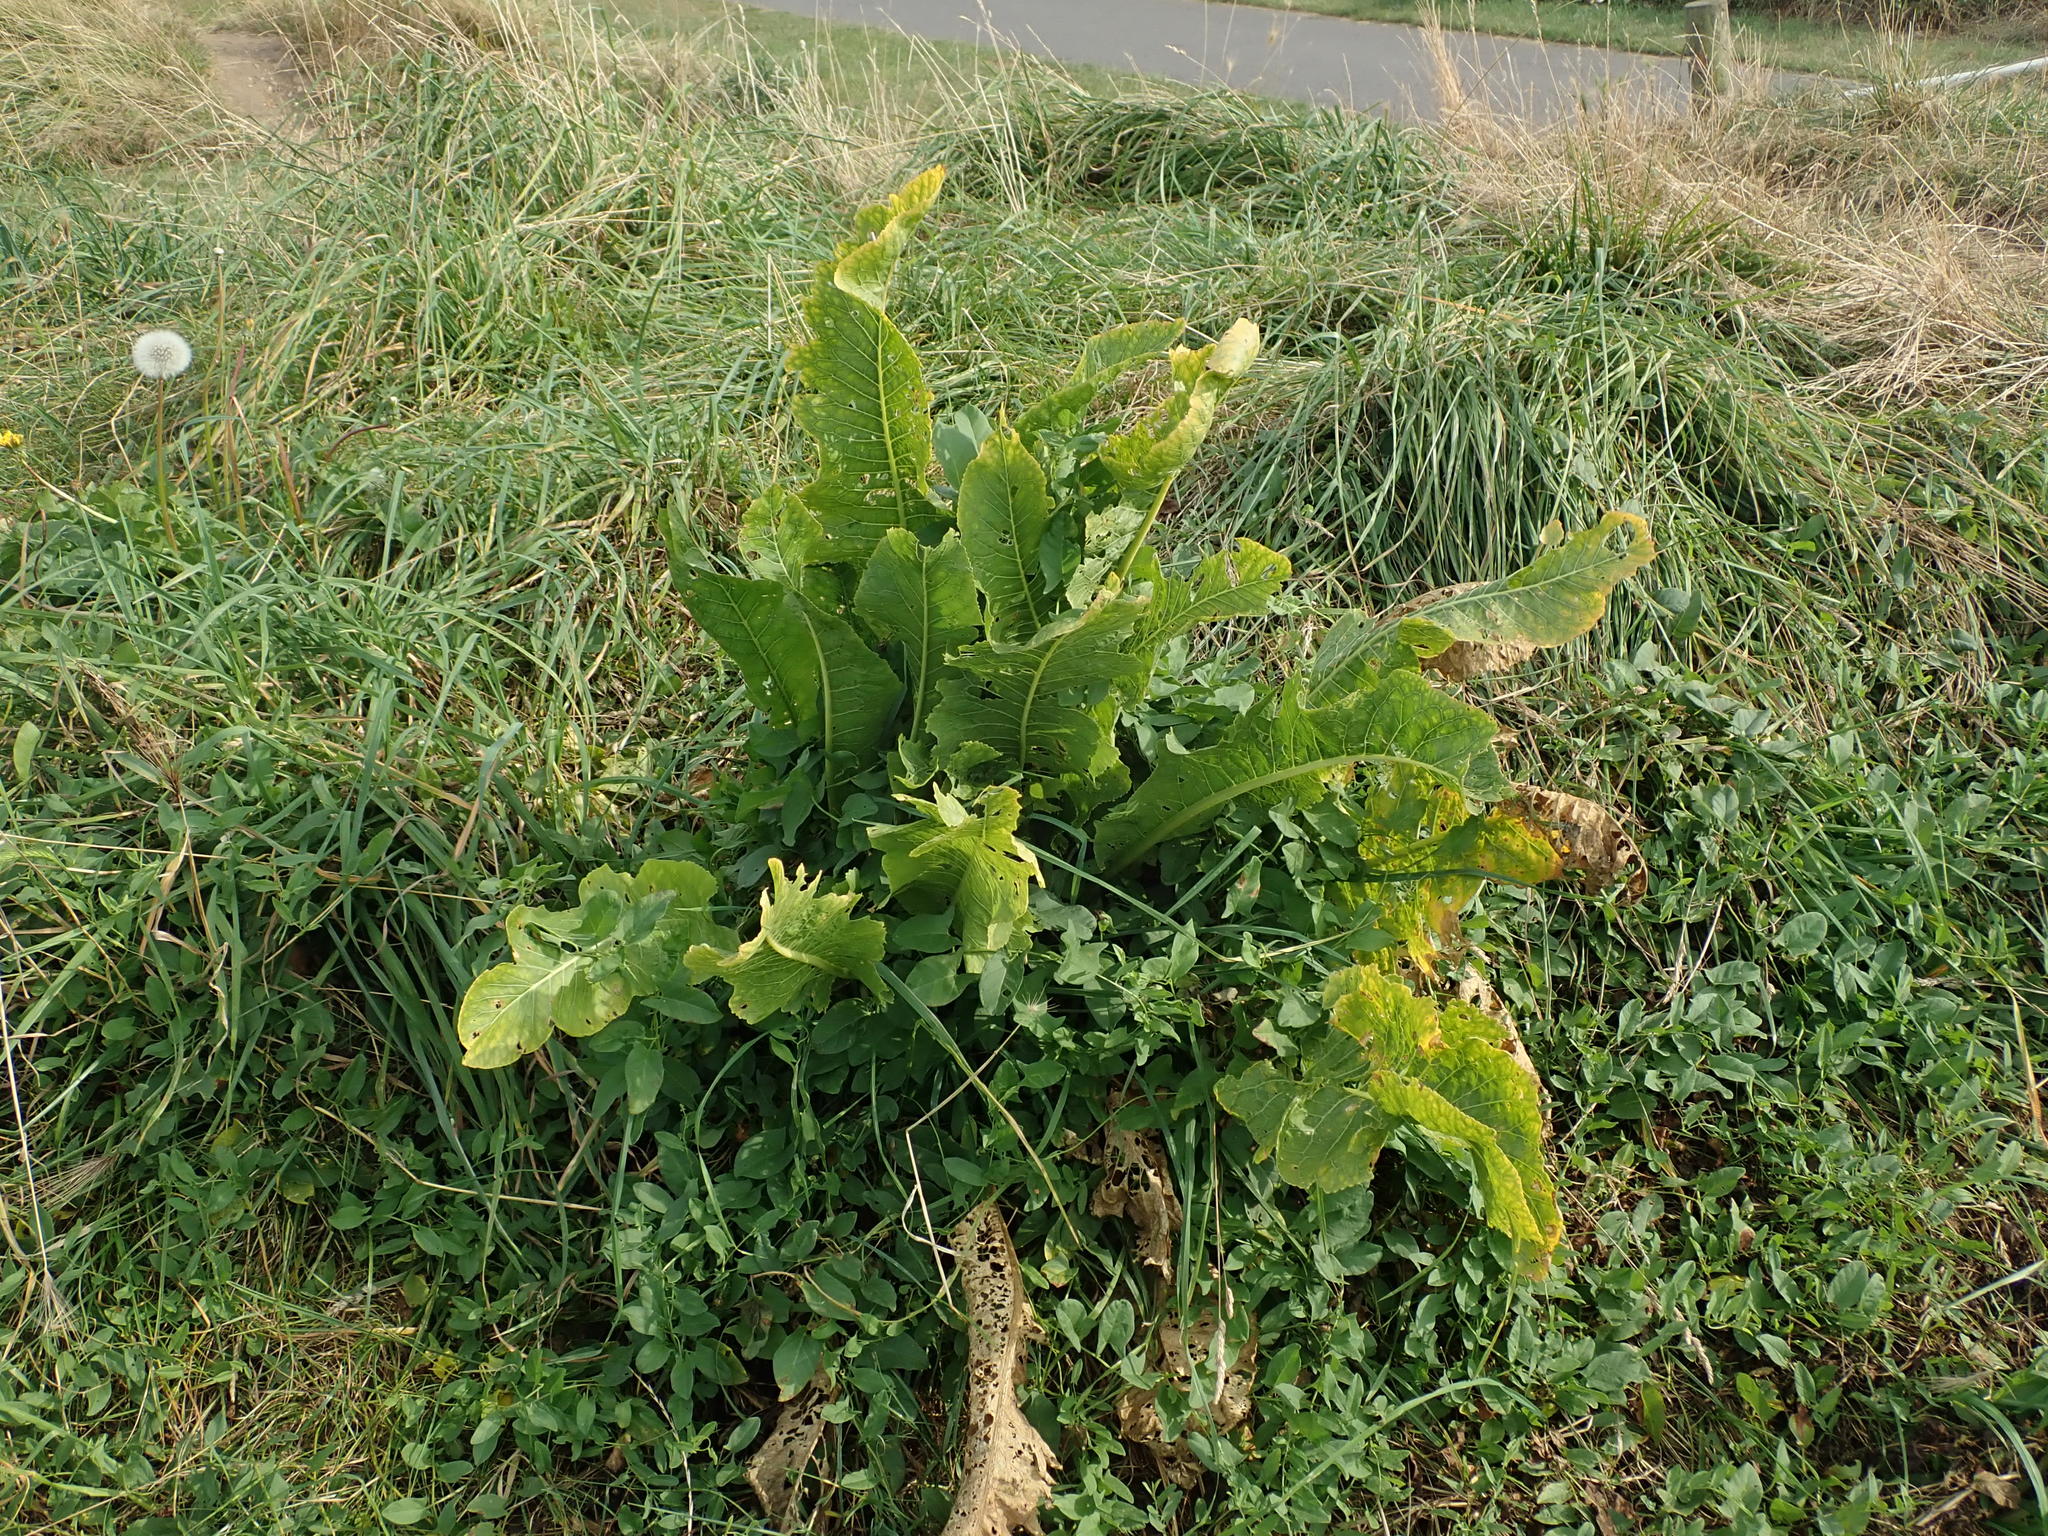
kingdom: Plantae
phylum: Tracheophyta
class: Magnoliopsida
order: Brassicales
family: Brassicaceae
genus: Armoracia
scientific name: Armoracia rusticana
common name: Horseradish
